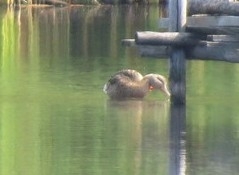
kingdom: Animalia
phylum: Chordata
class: Aves
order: Anseriformes
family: Anatidae
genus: Anas
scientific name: Anas platyrhynchos
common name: Mallard
